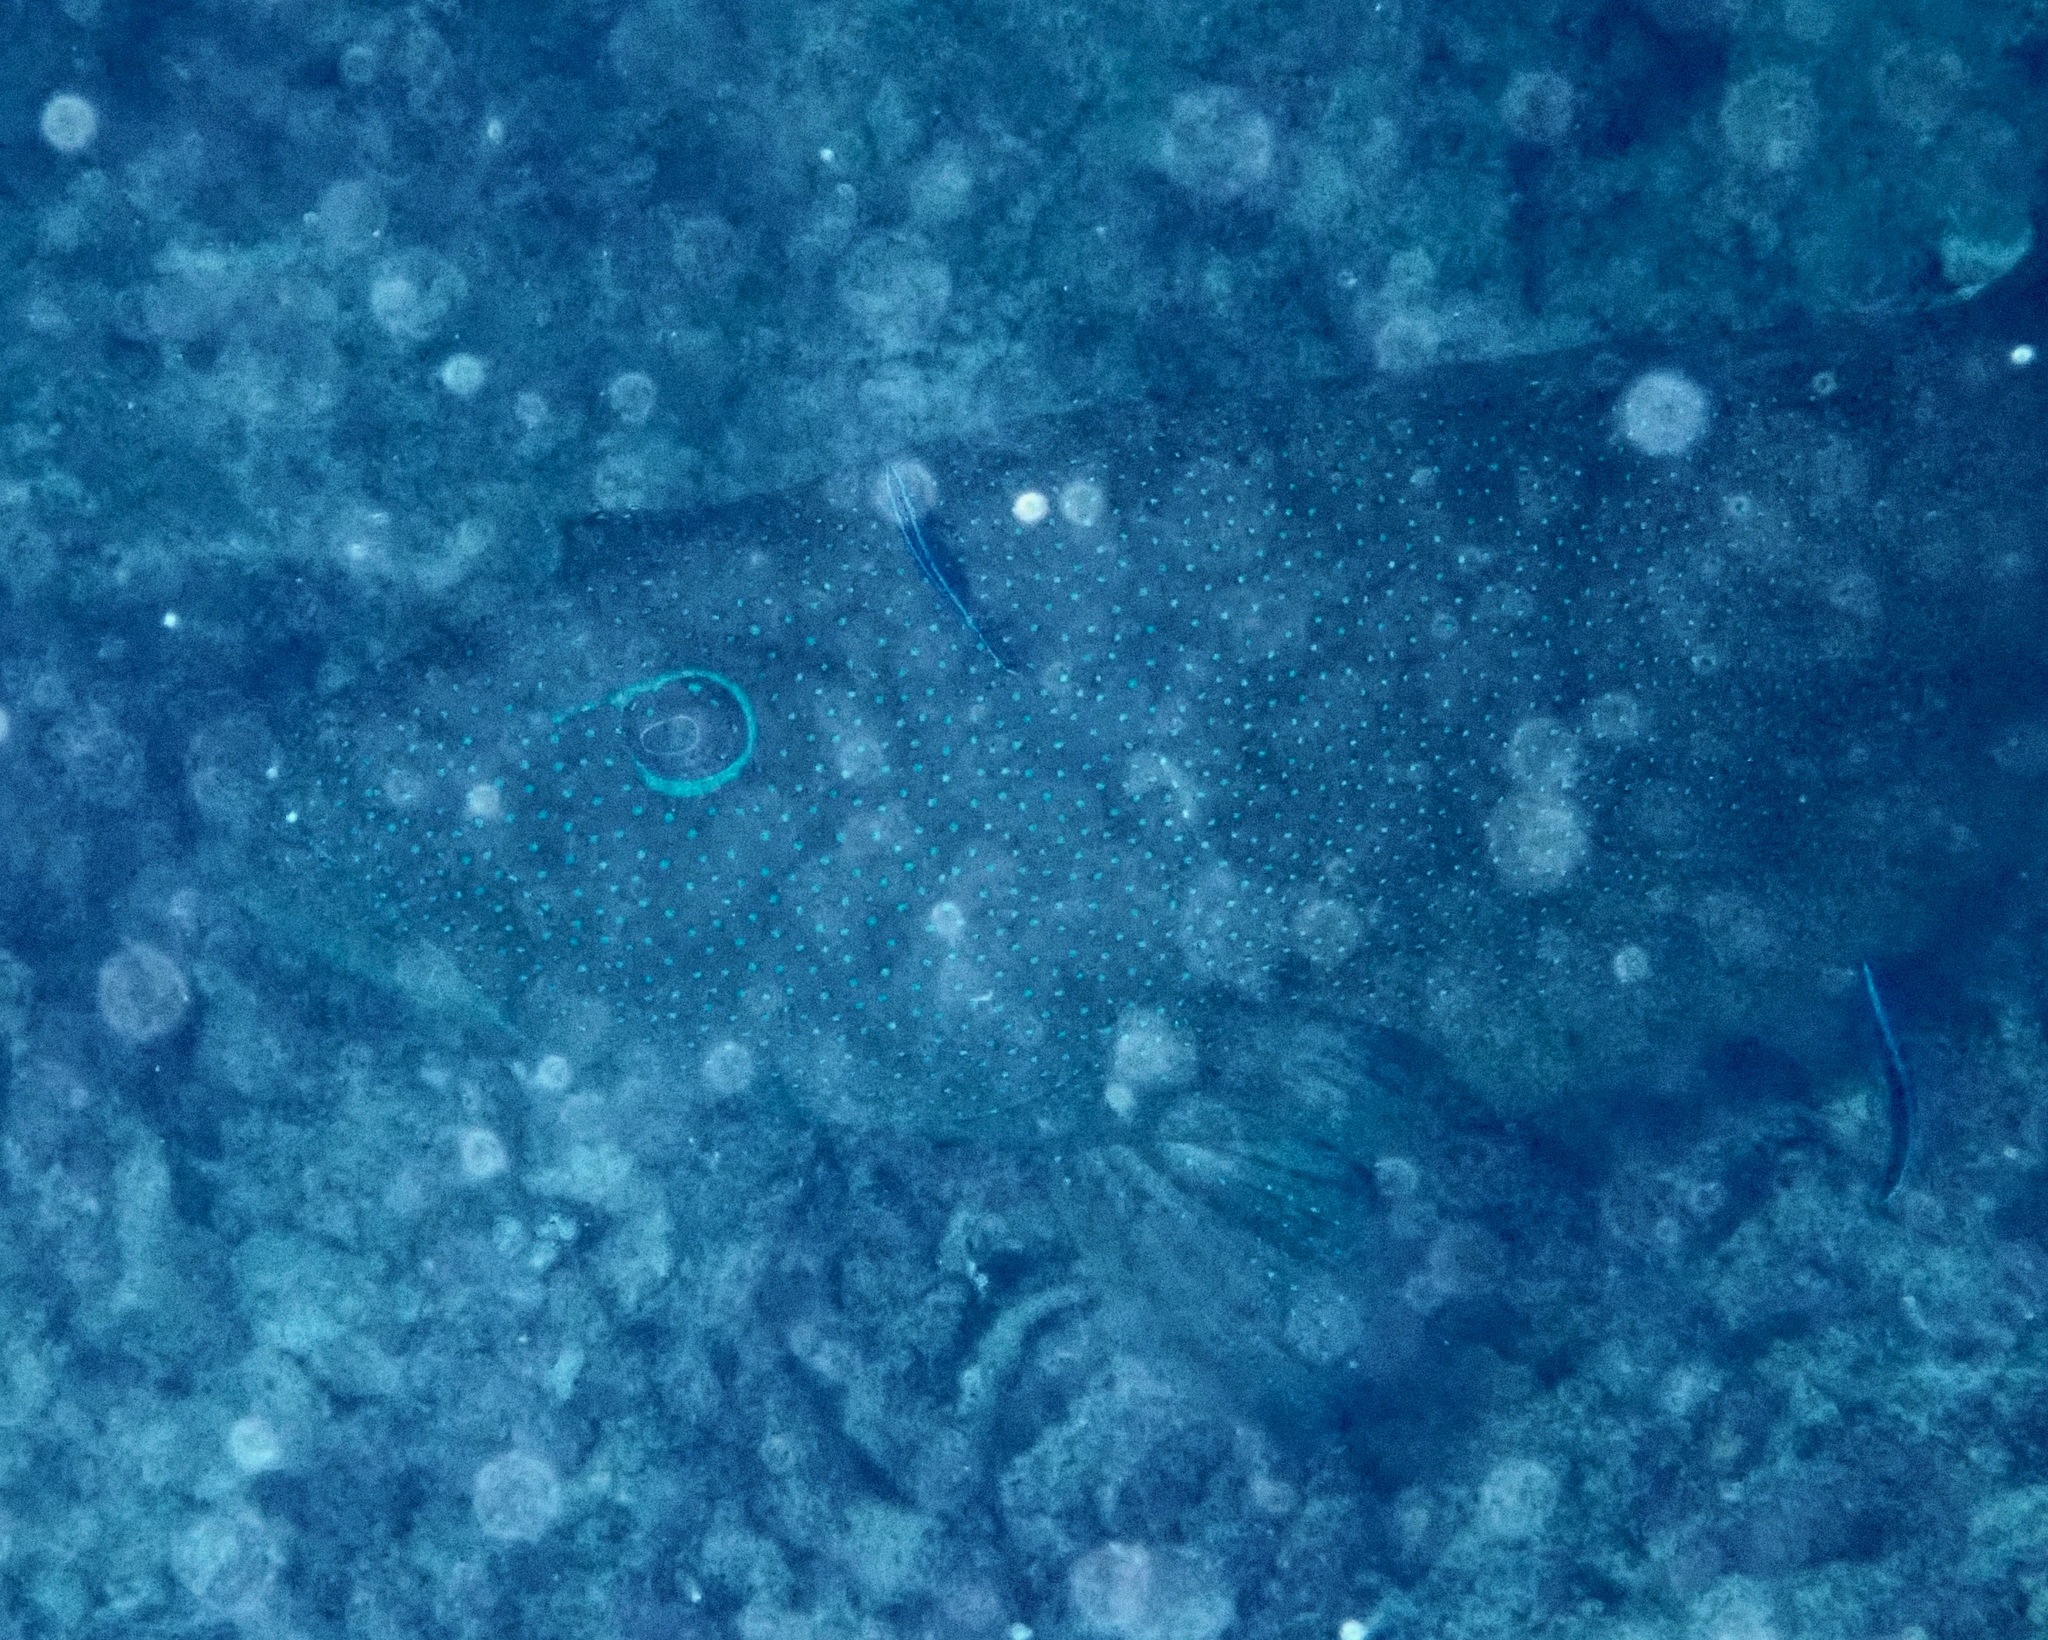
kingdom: Animalia
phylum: Chordata
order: Perciformes
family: Serranidae
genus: Plectropomus
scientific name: Plectropomus leopardus
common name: Coral trout
